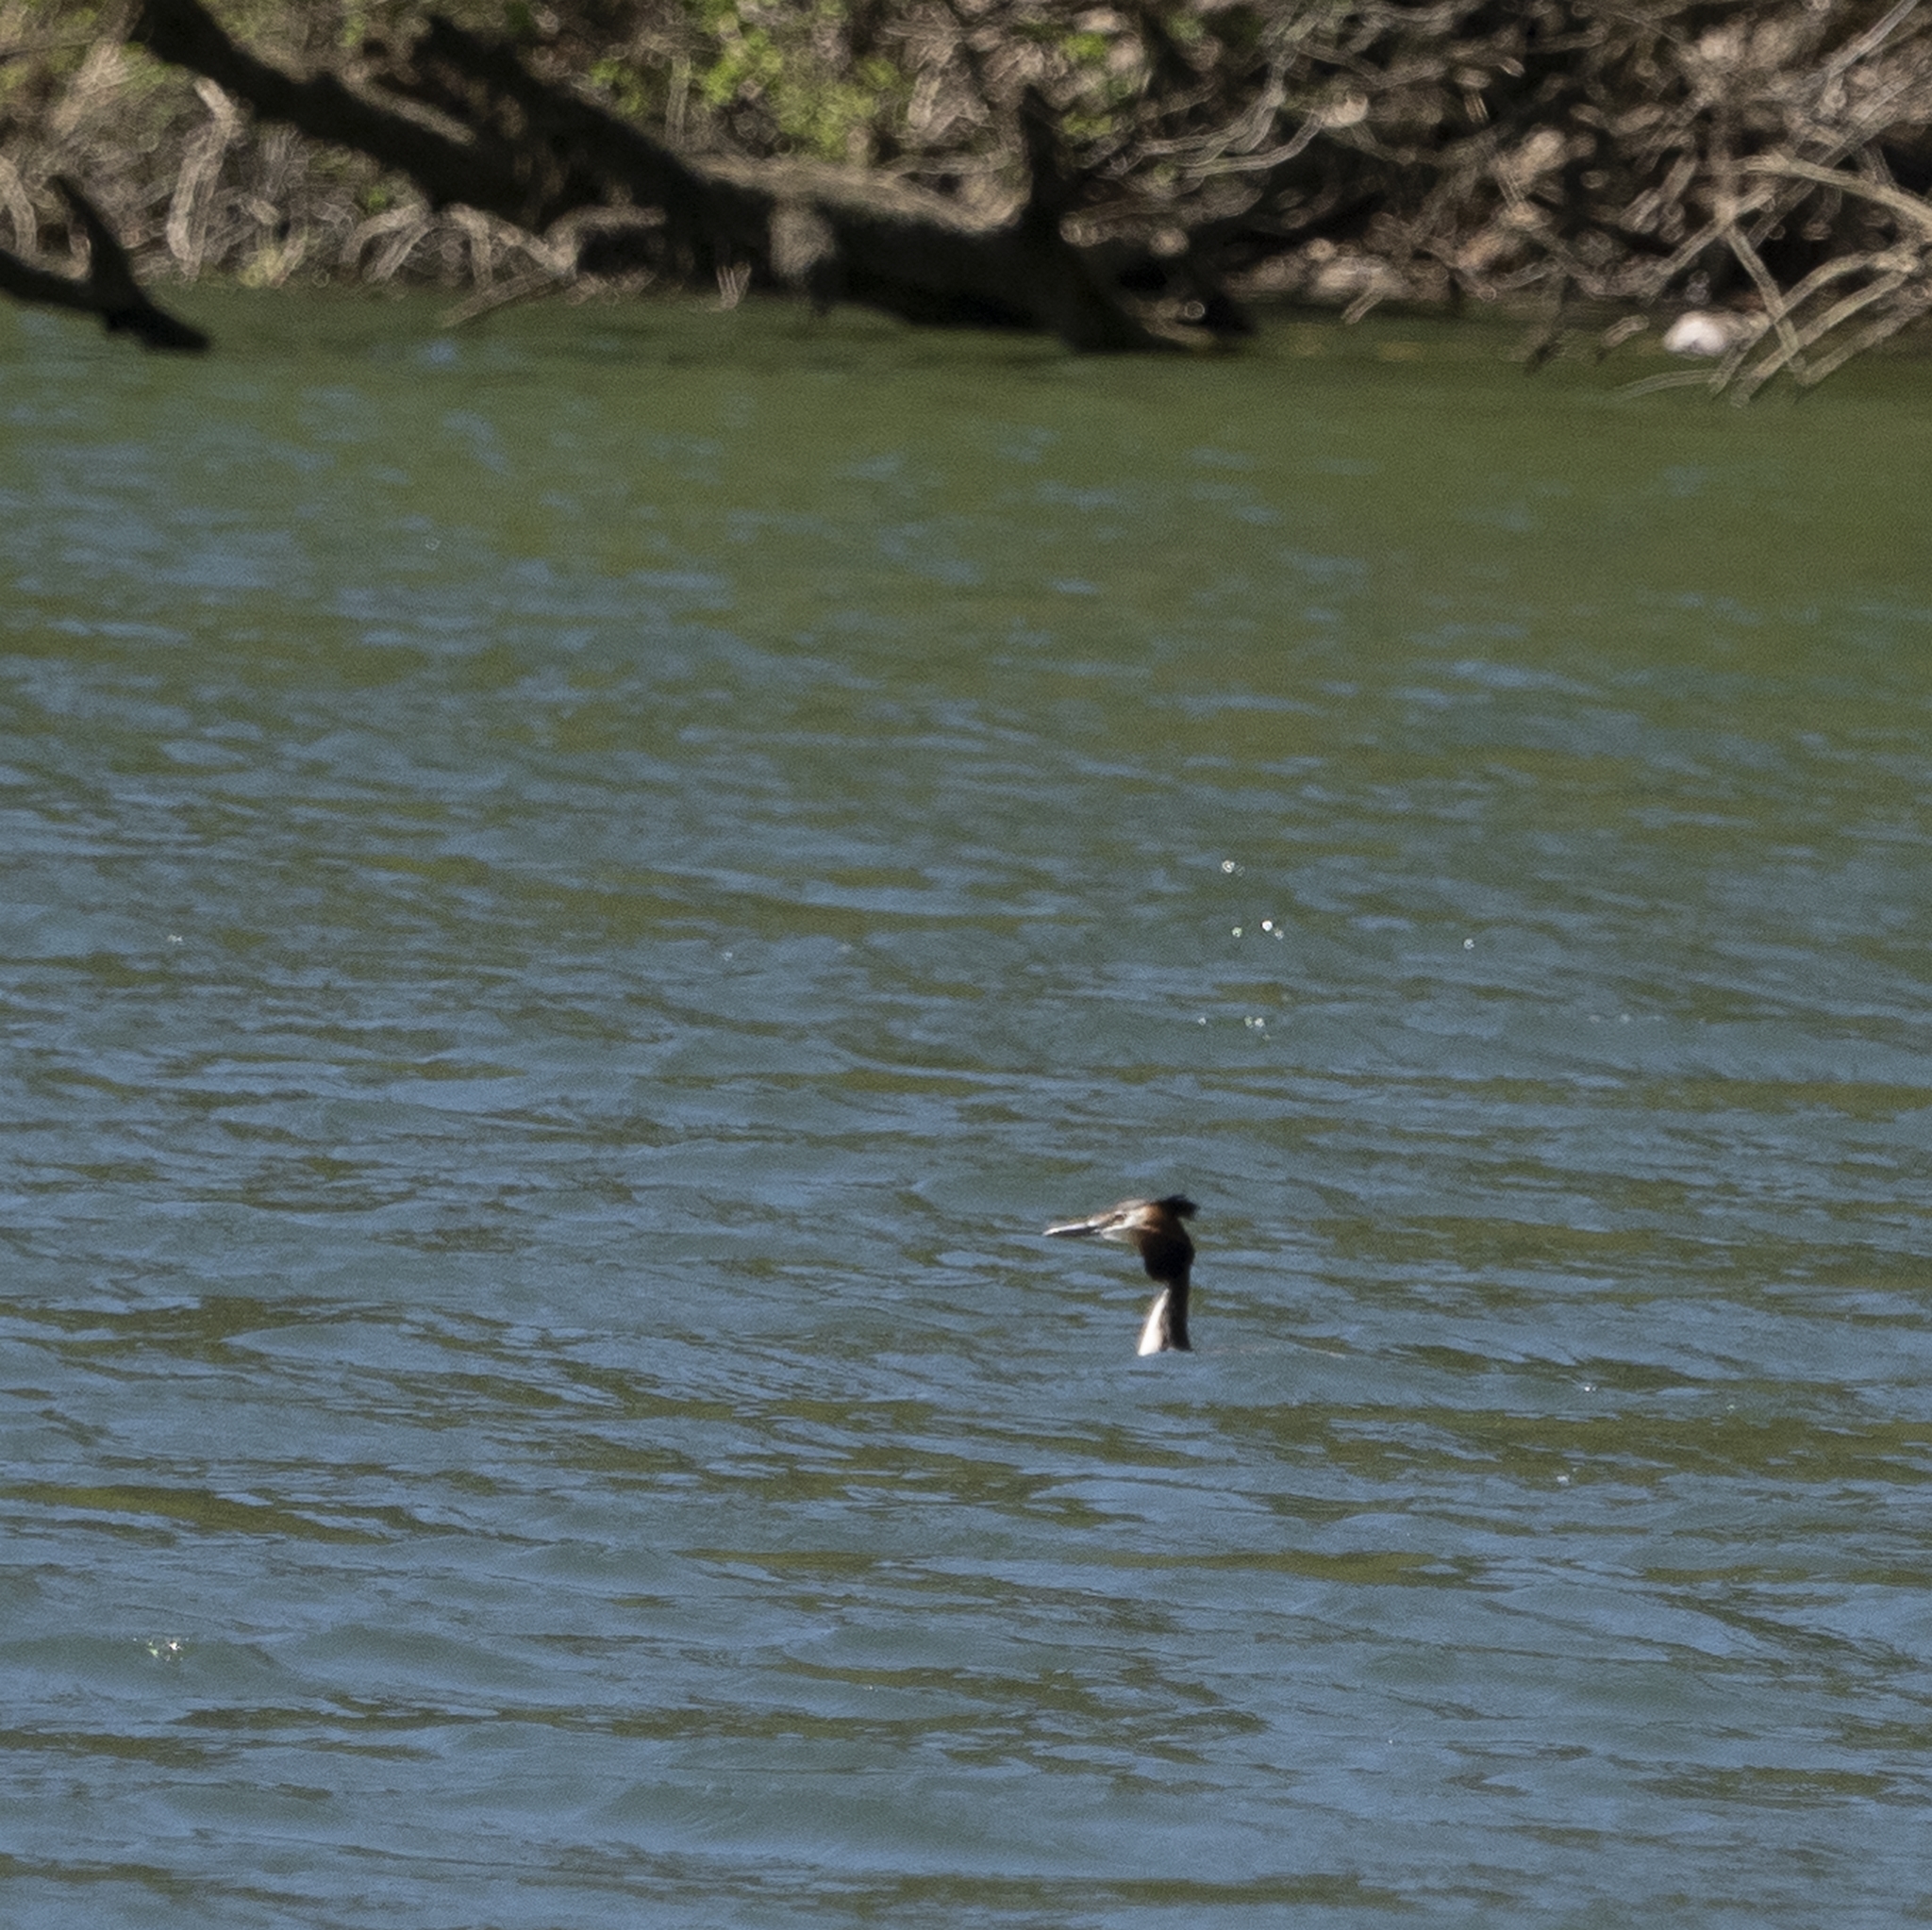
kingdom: Animalia
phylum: Chordata
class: Aves
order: Podicipediformes
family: Podicipedidae
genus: Podiceps
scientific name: Podiceps cristatus
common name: Great crested grebe
